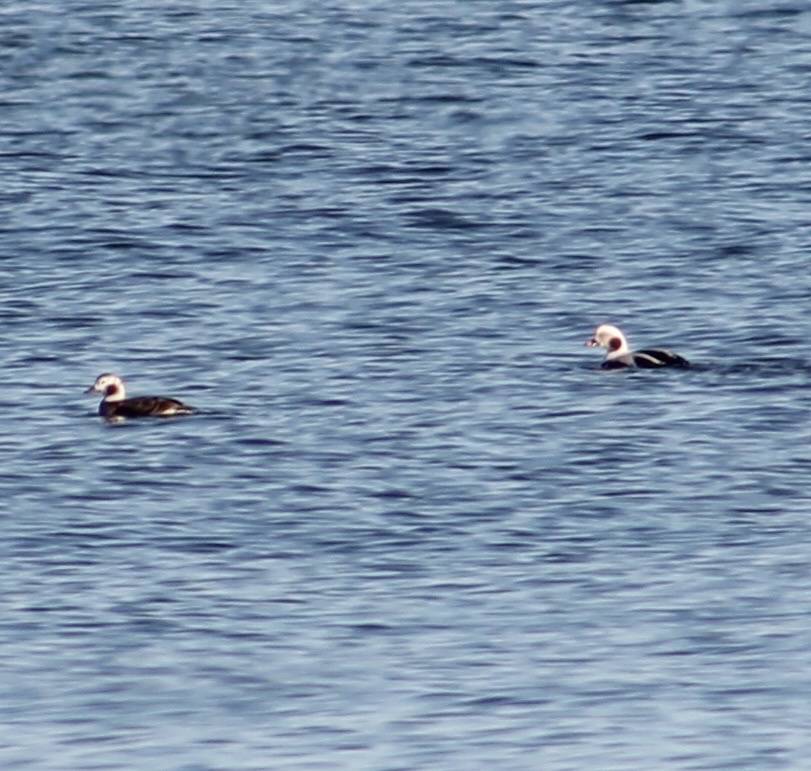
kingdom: Animalia
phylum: Chordata
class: Aves
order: Anseriformes
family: Anatidae
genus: Clangula
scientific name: Clangula hyemalis
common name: Long-tailed duck
